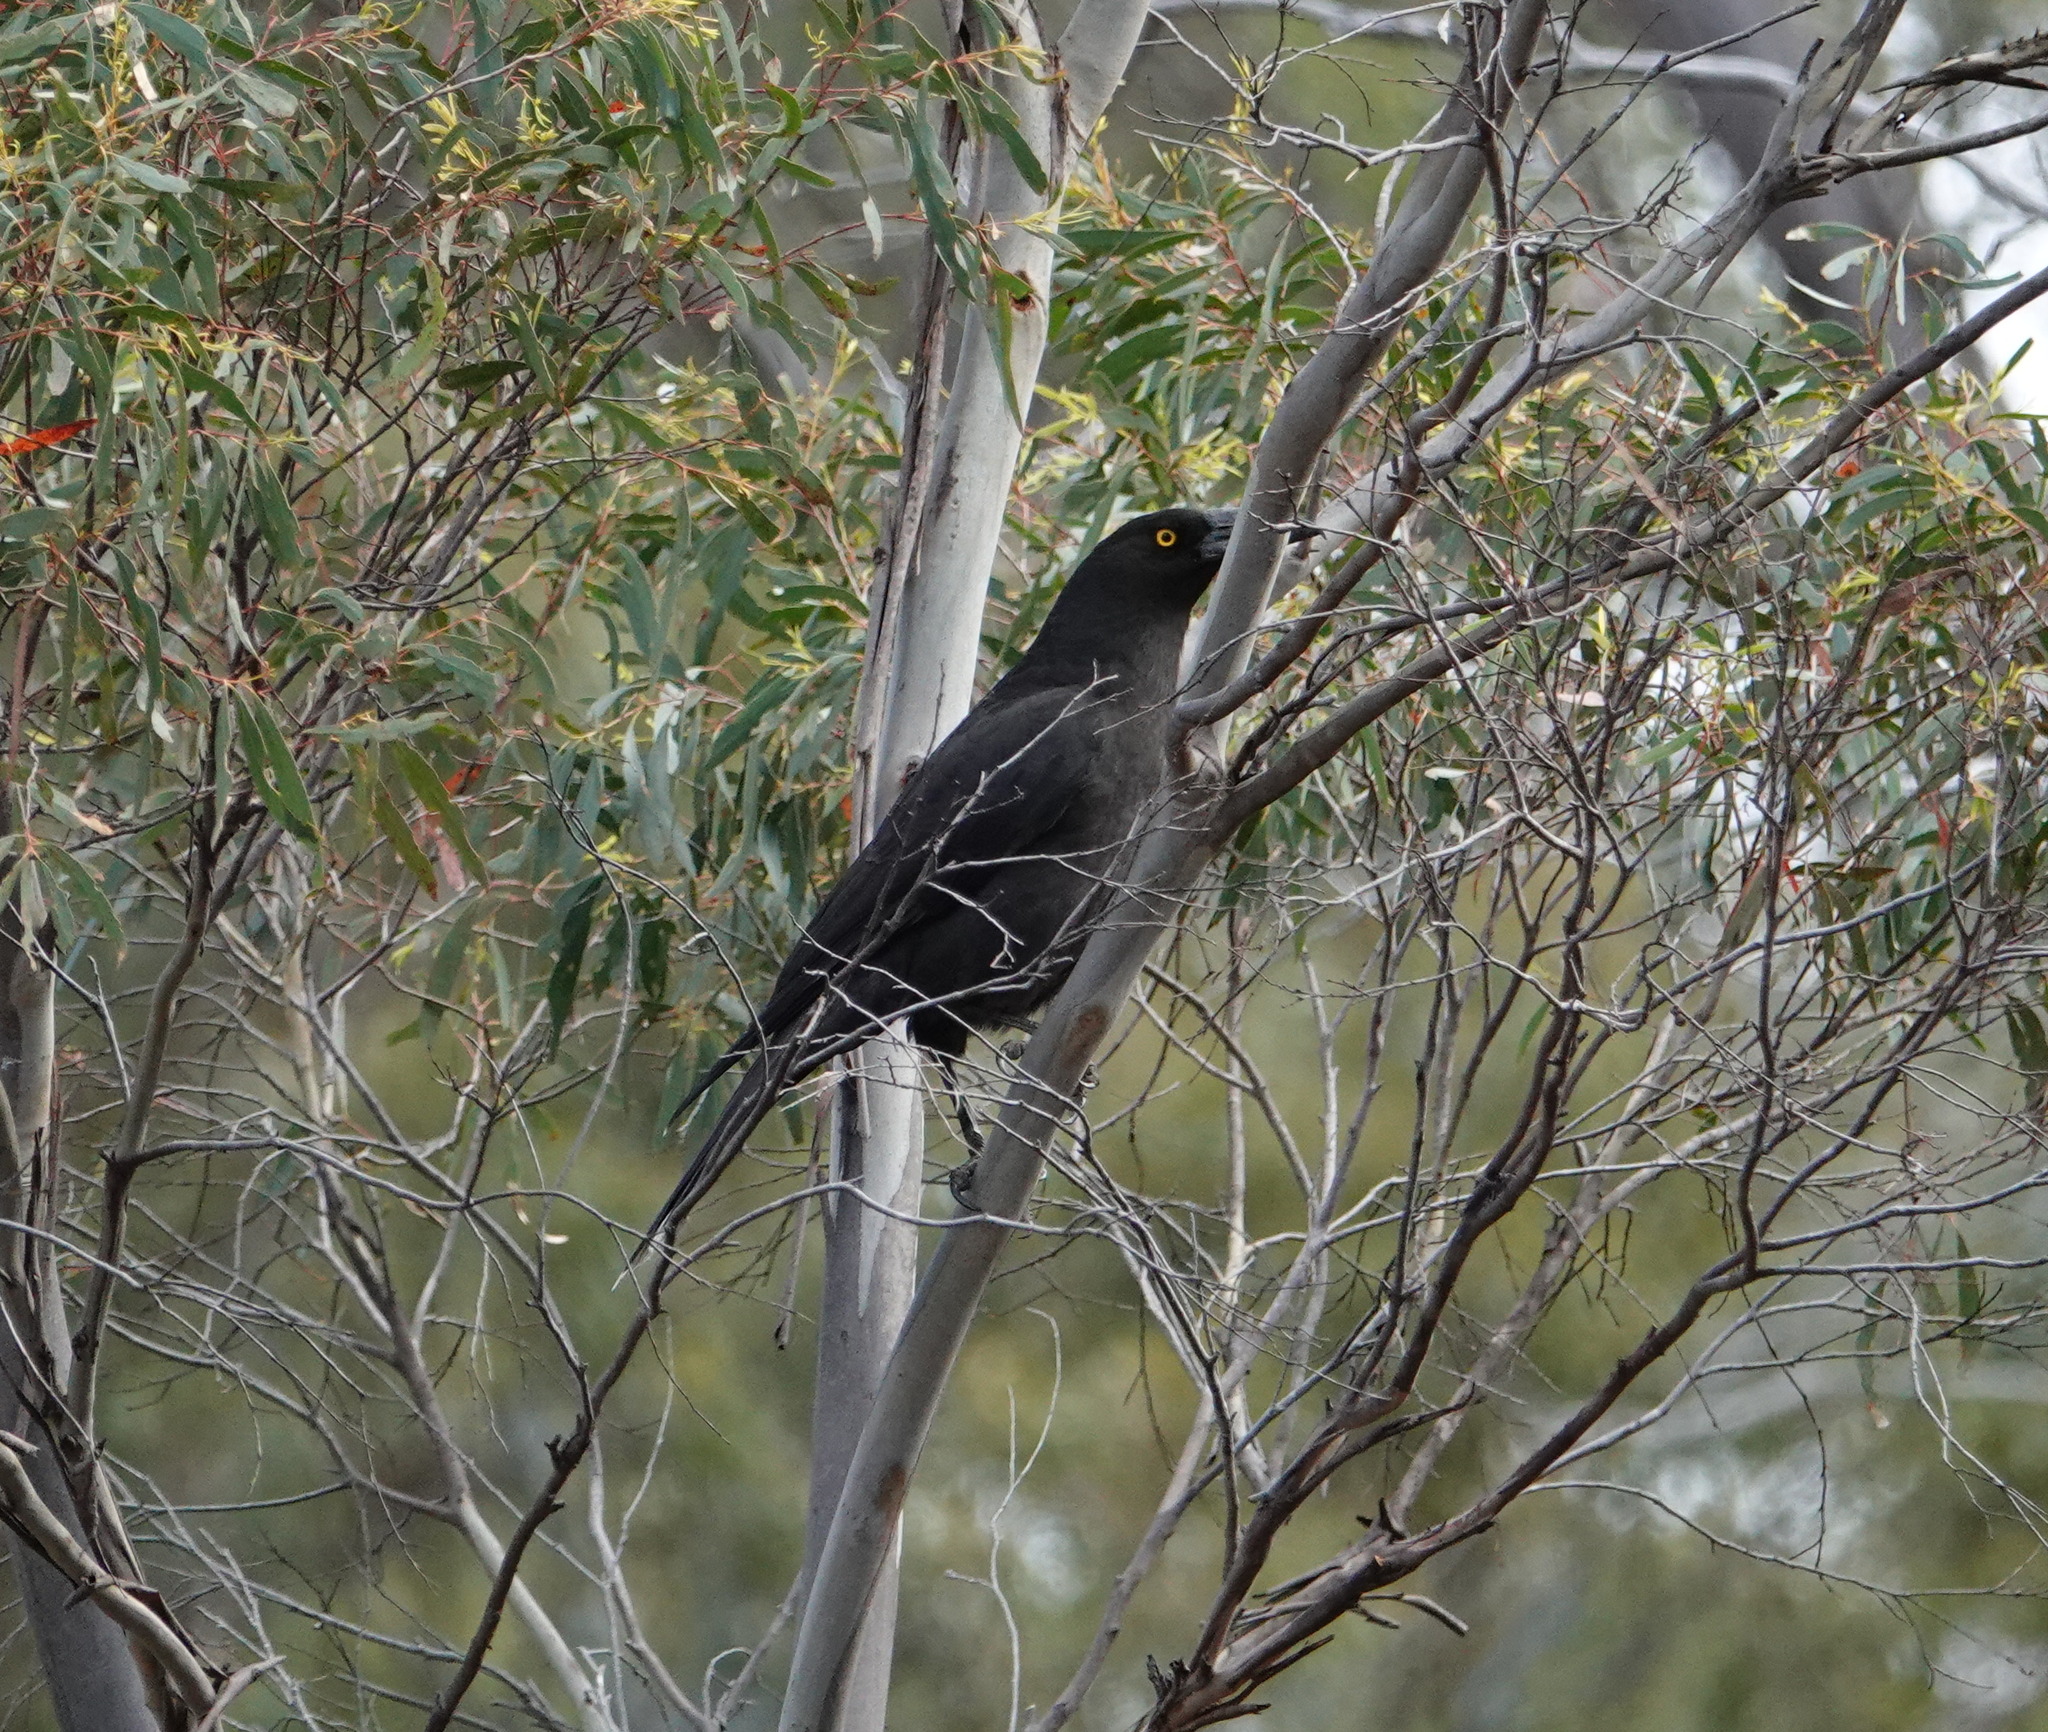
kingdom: Animalia
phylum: Chordata
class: Aves
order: Passeriformes
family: Cracticidae
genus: Strepera
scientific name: Strepera fuliginosa
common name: Black currawong
